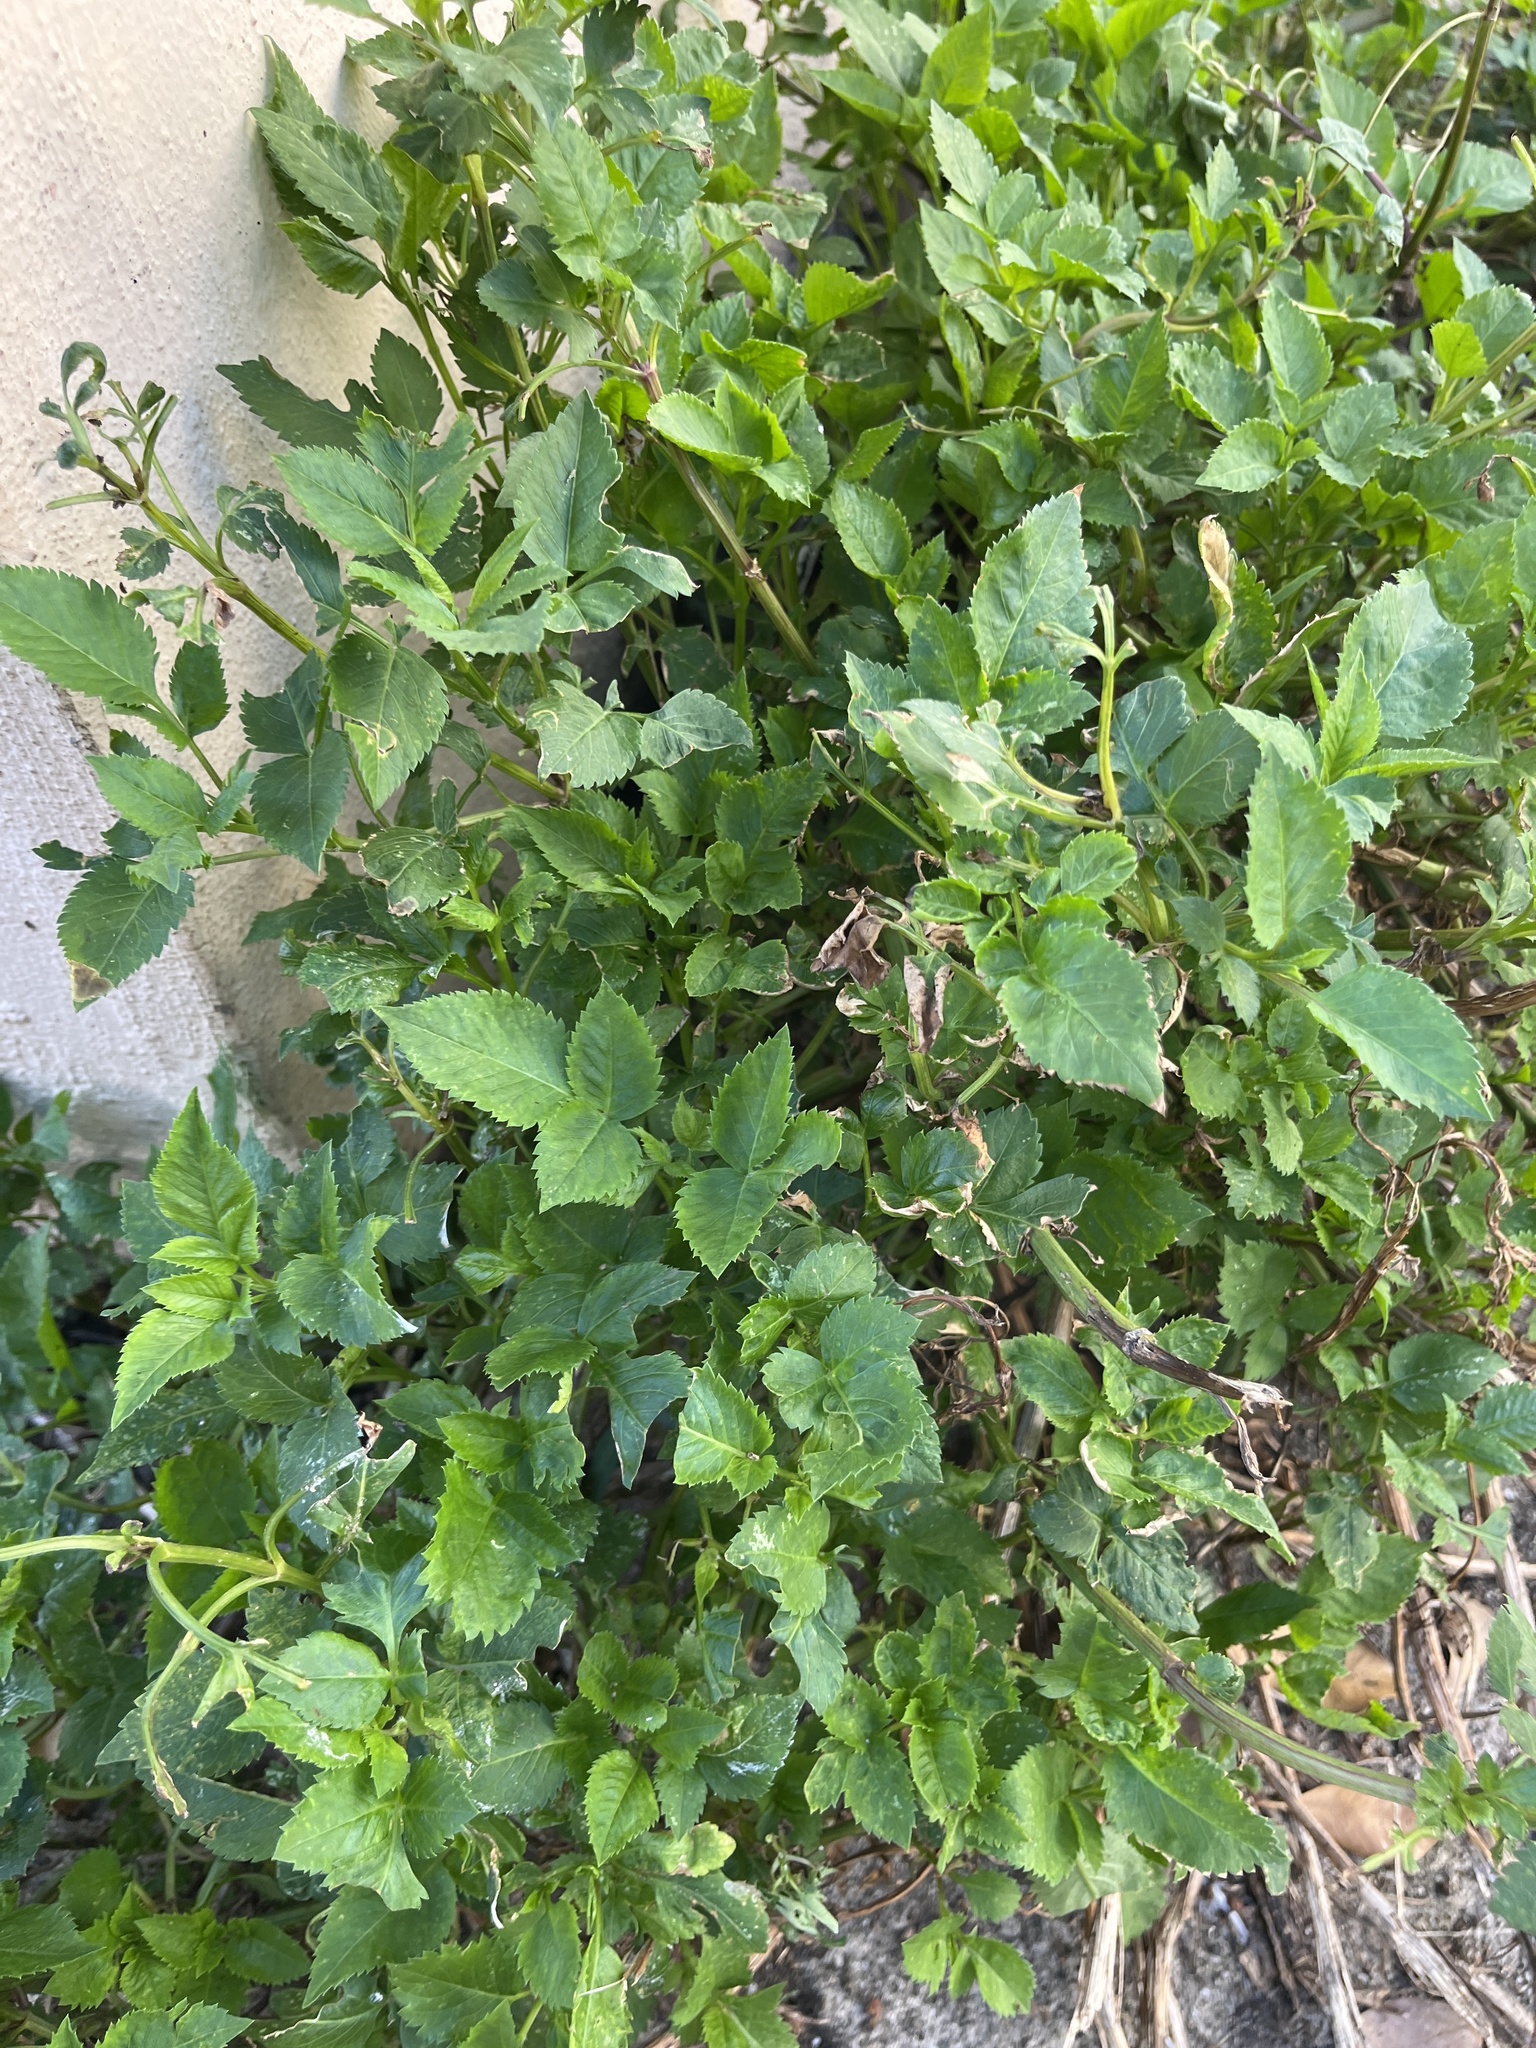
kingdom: Plantae
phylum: Tracheophyta
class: Magnoliopsida
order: Asterales
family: Asteraceae
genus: Bidens
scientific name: Bidens alba
